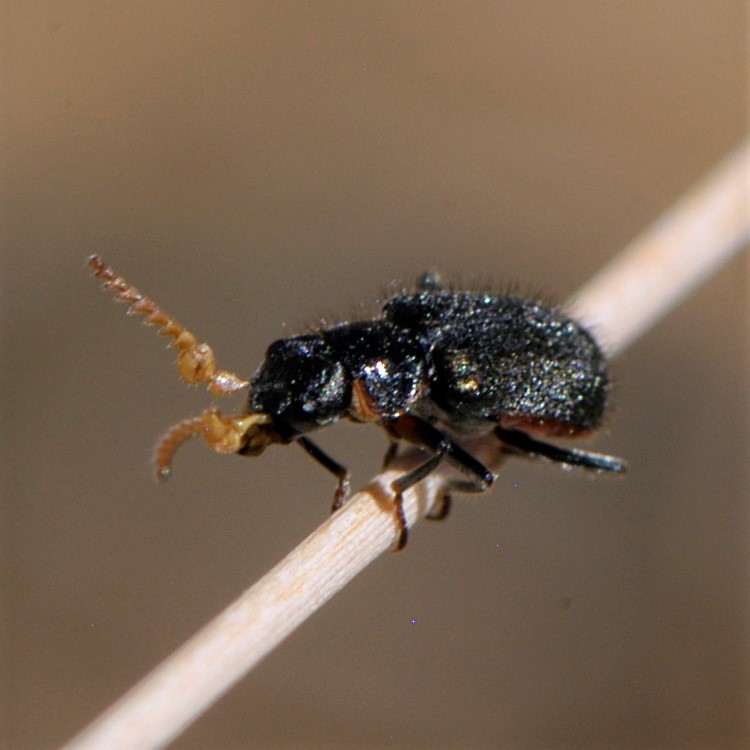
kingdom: Animalia
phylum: Arthropoda
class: Insecta
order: Coleoptera
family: Melyridae
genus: Collops
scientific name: Collops
